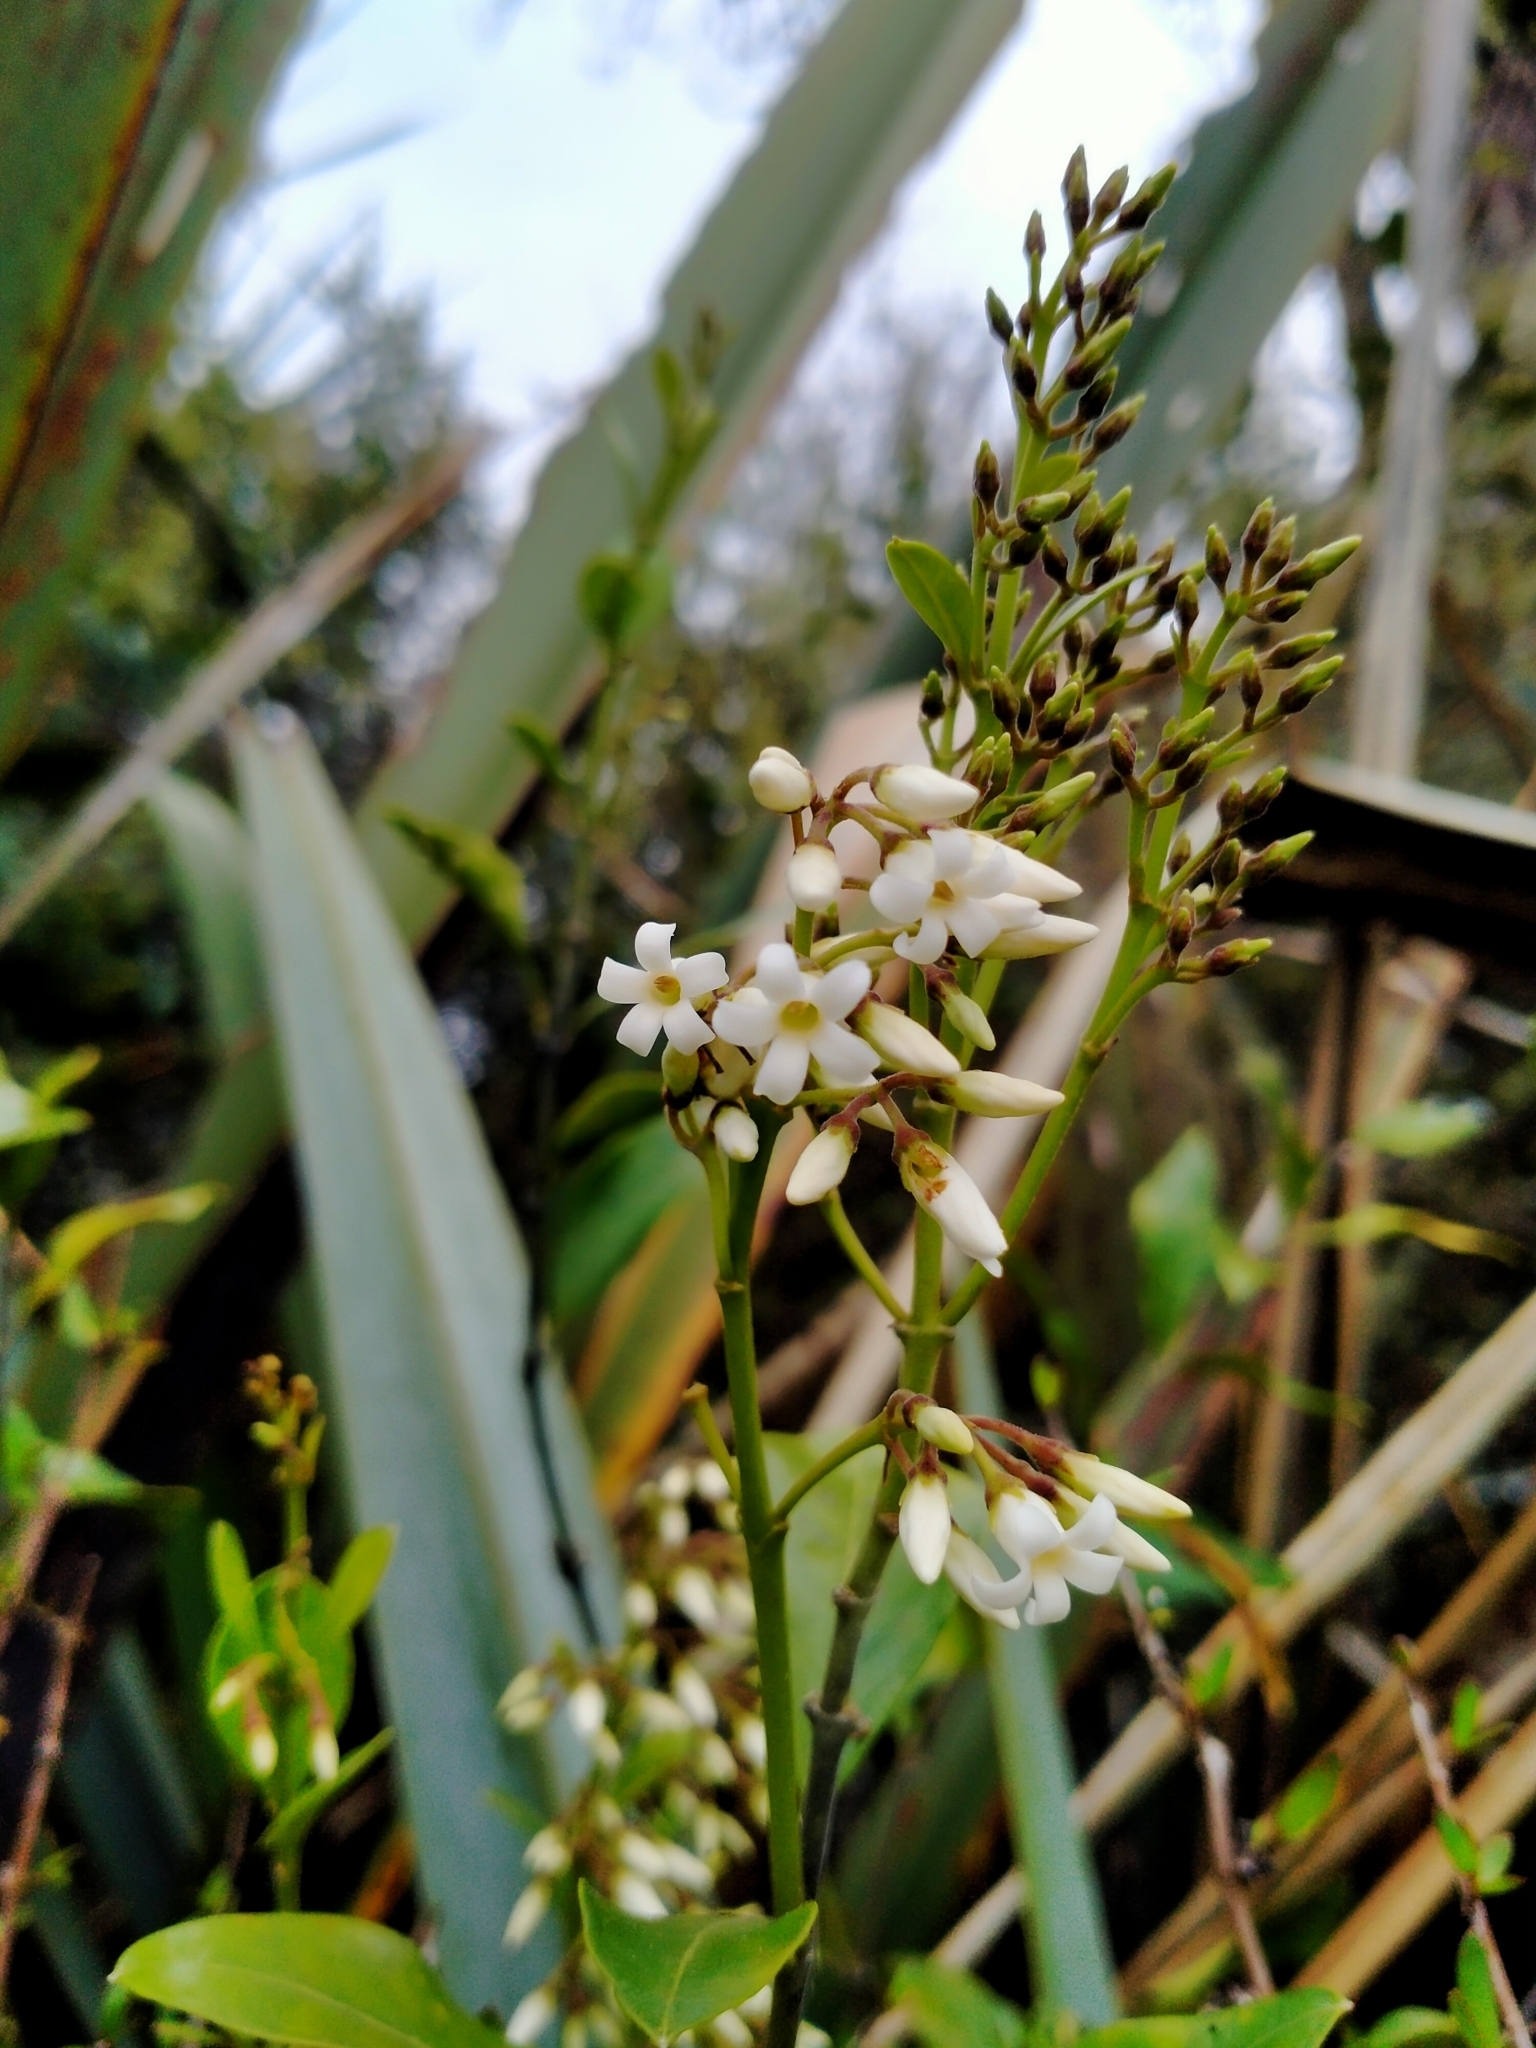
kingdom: Plantae
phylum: Tracheophyta
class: Magnoliopsida
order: Gentianales
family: Apocynaceae
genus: Parsonsia
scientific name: Parsonsia heterophylla
